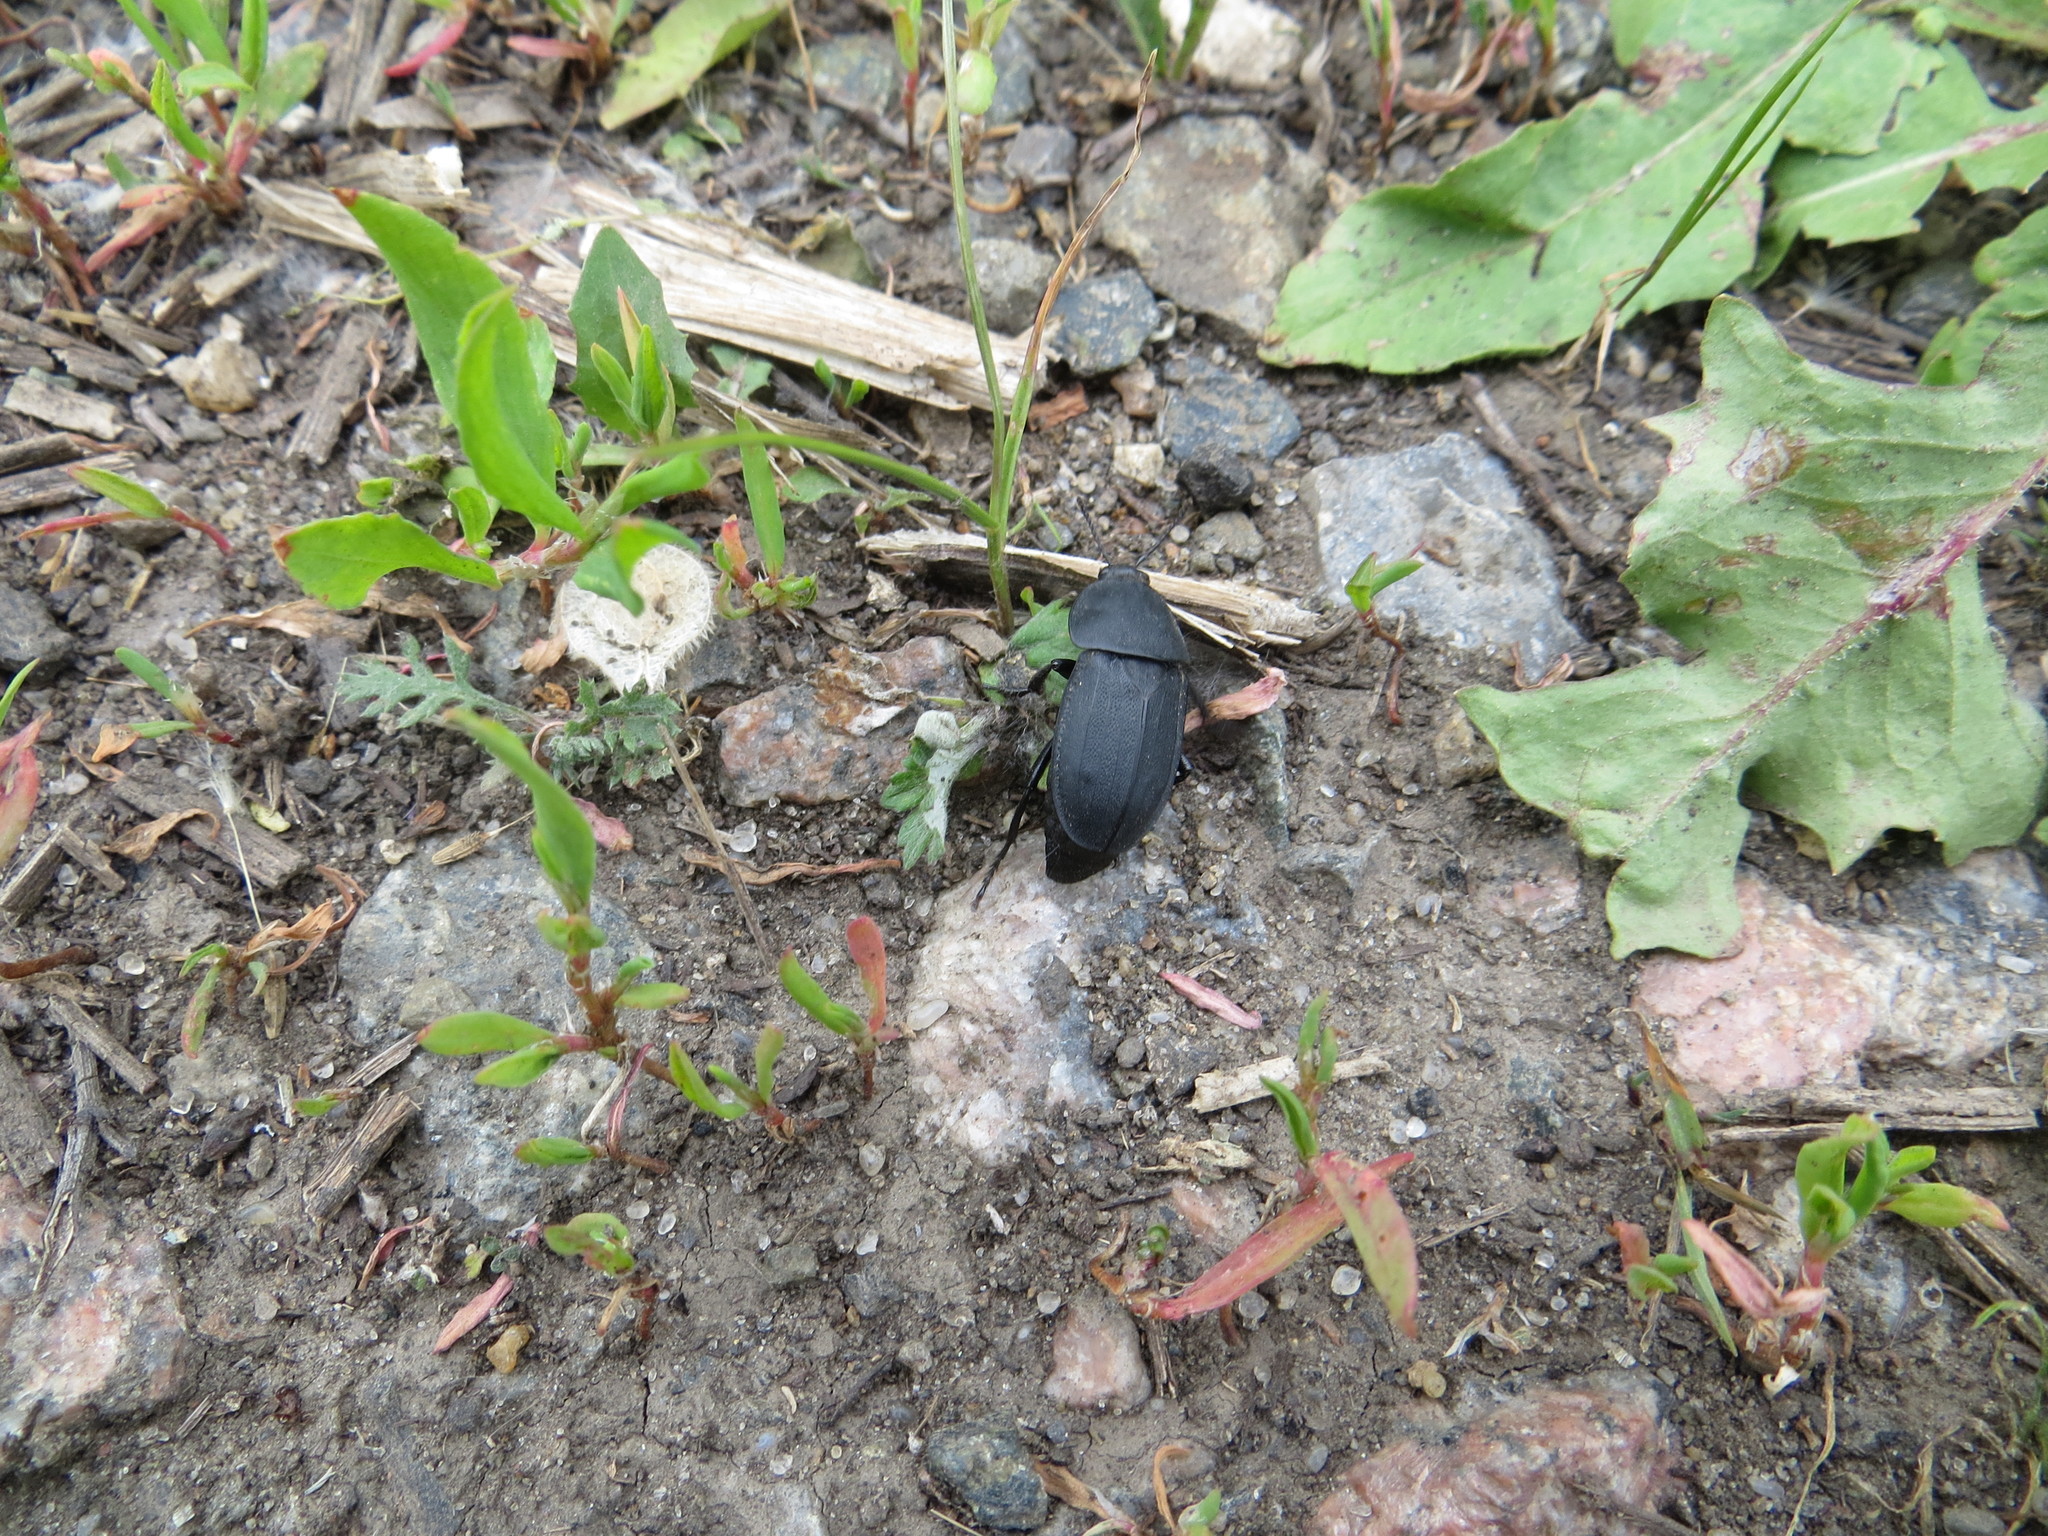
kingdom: Animalia
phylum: Arthropoda
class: Insecta
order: Coleoptera
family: Staphylinidae
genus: Silpha
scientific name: Silpha obscura
